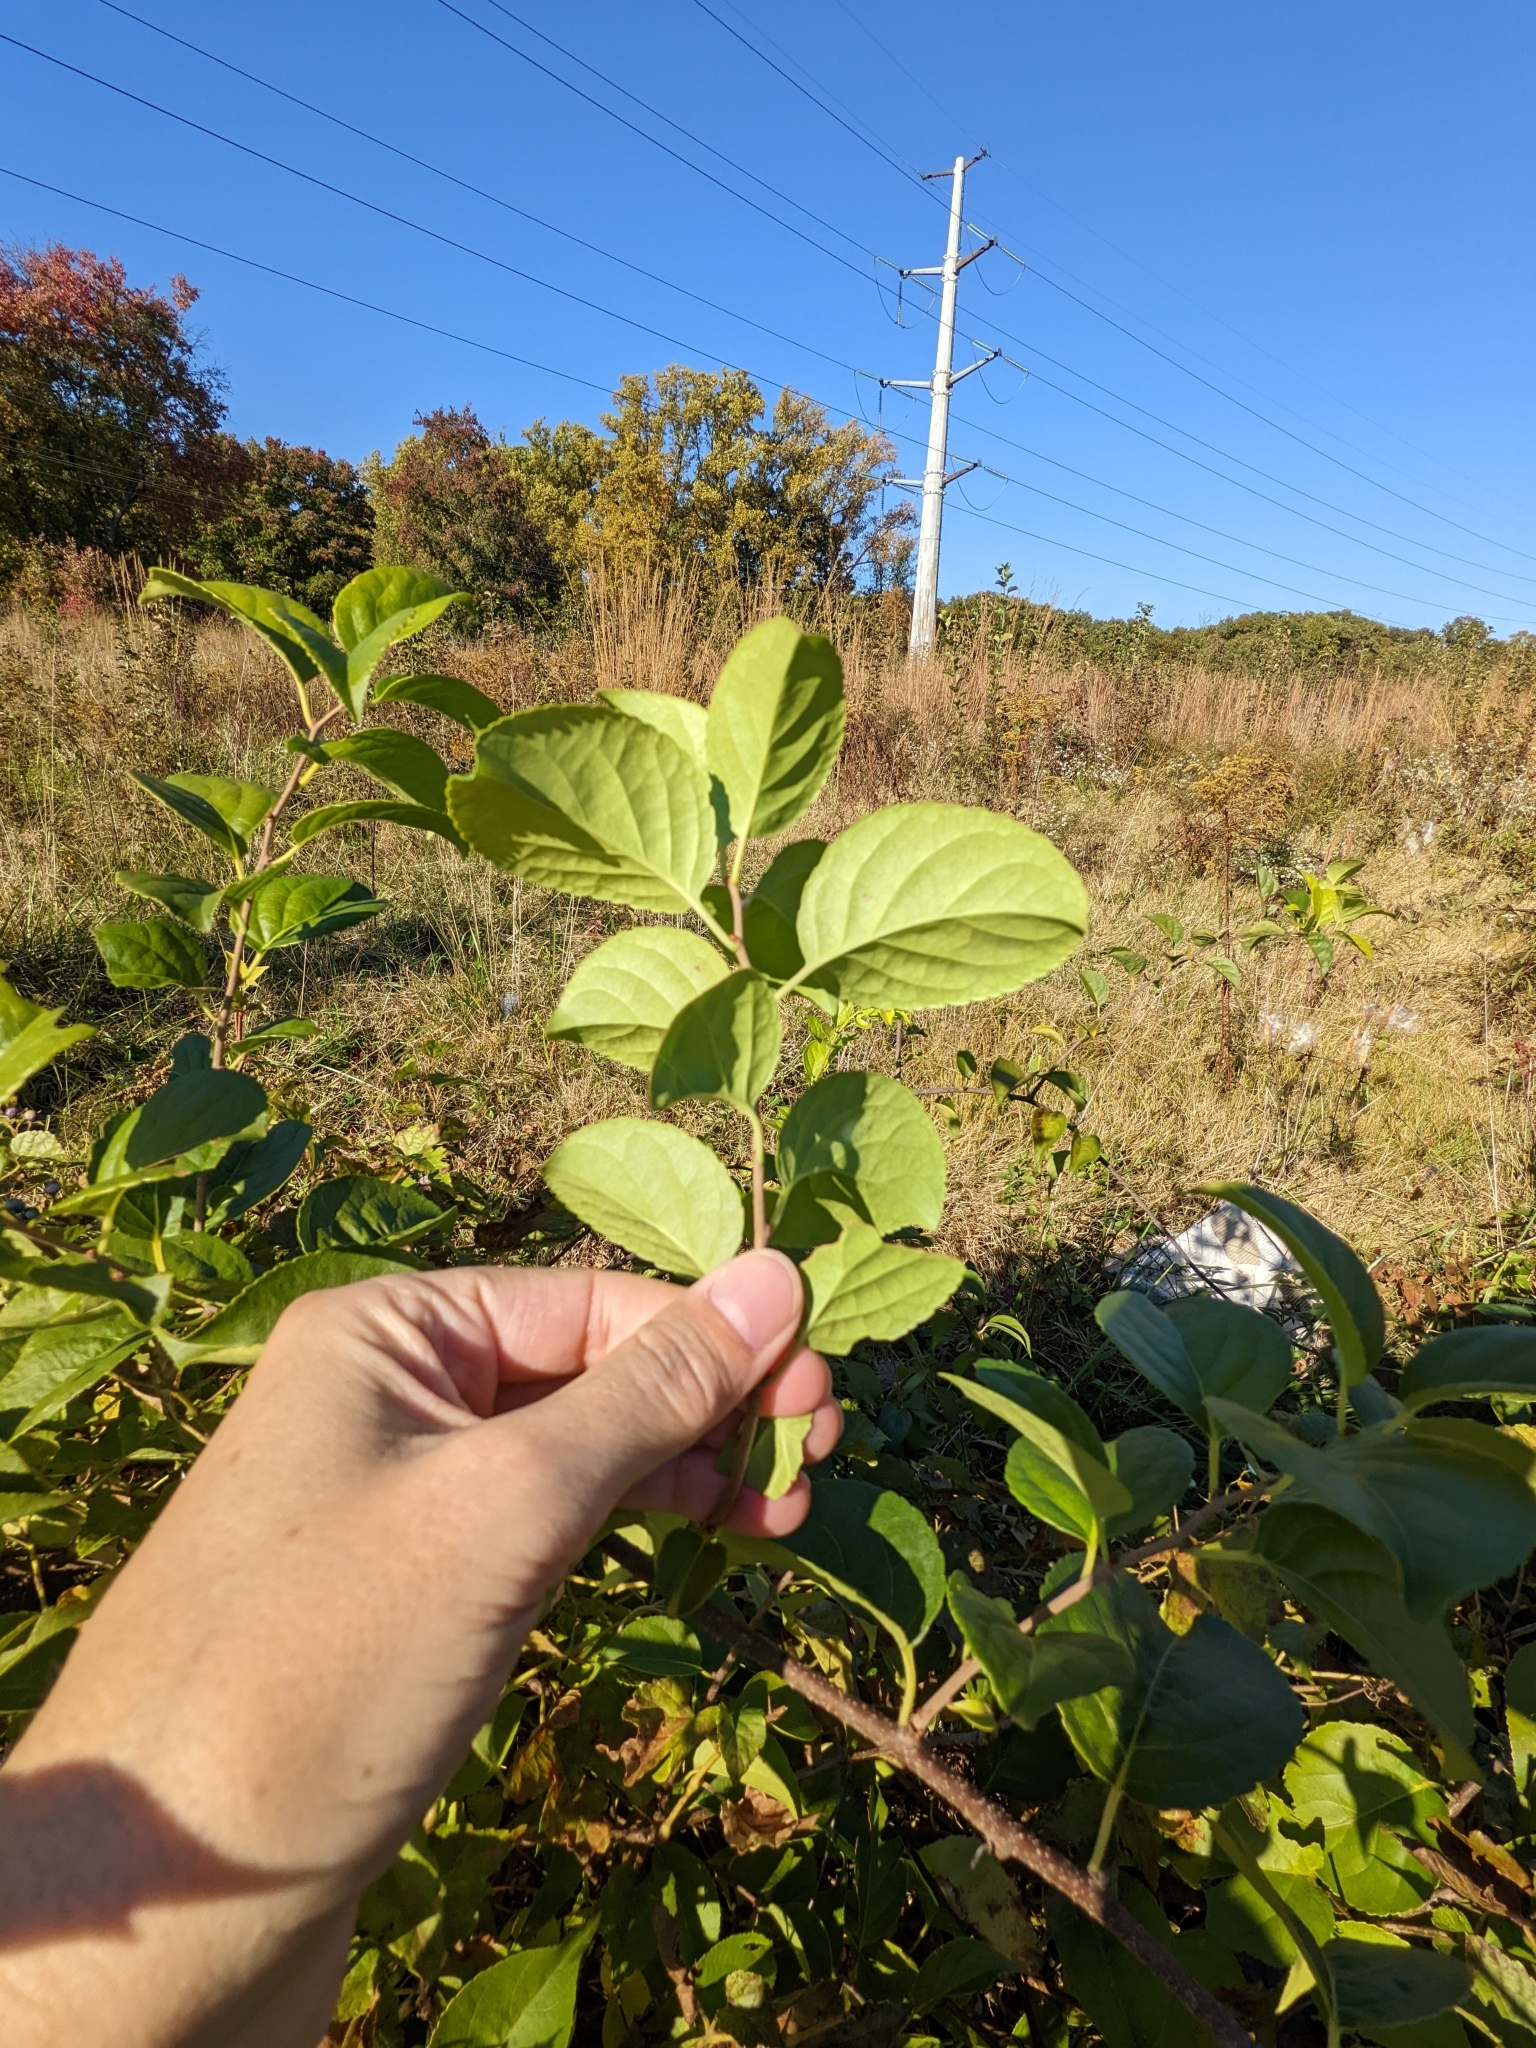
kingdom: Plantae
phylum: Tracheophyta
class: Magnoliopsida
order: Celastrales
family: Celastraceae
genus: Celastrus
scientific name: Celastrus orbiculatus
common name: Oriental bittersweet
